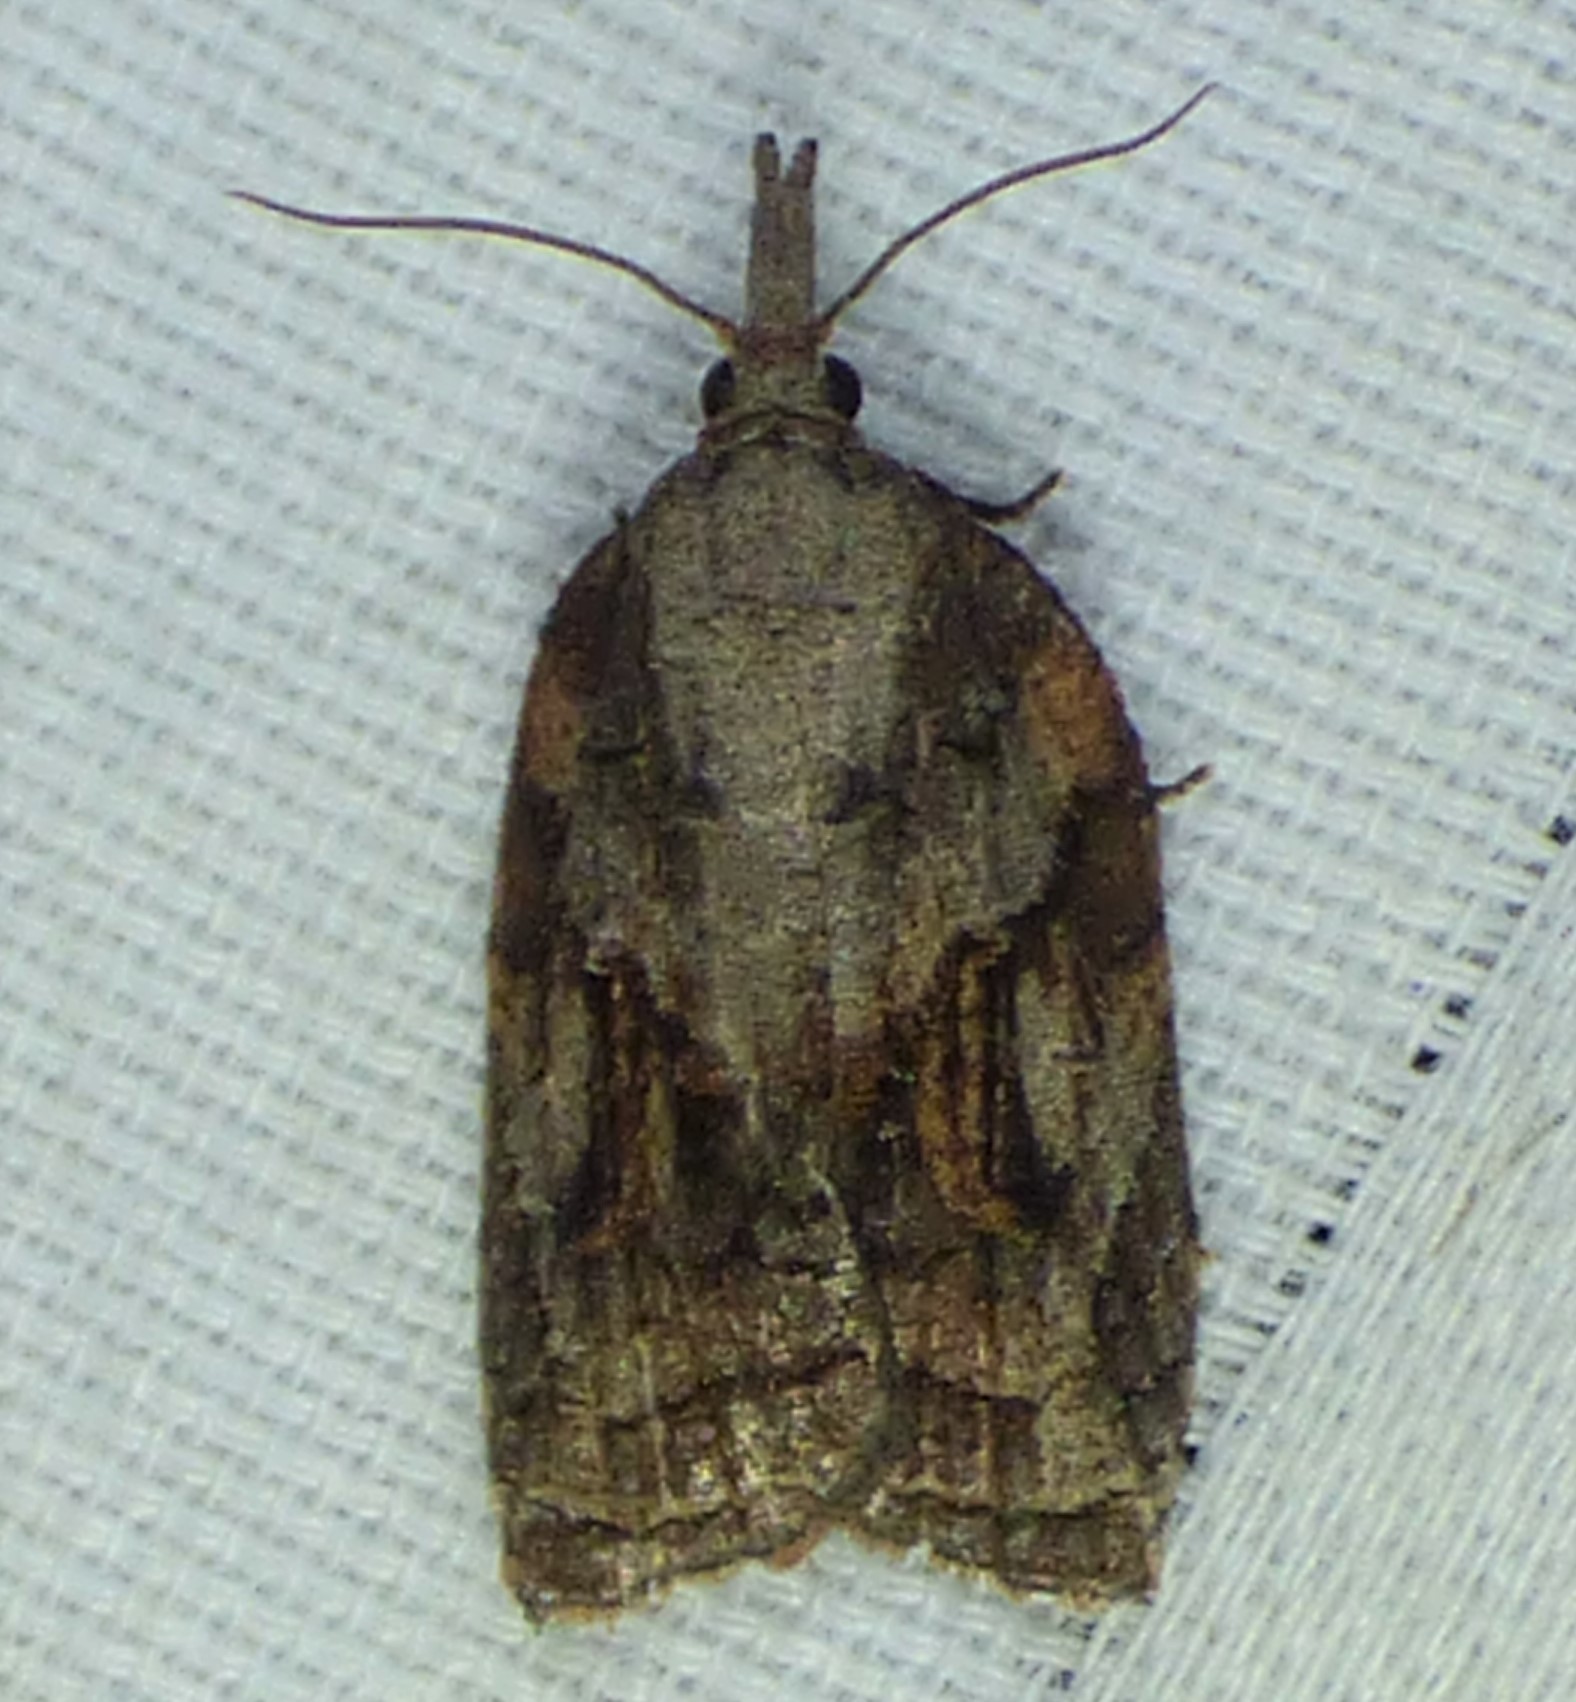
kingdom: Animalia
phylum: Arthropoda
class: Insecta
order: Lepidoptera
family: Tortricidae
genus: Platynota
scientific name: Platynota idaeusalis
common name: Tufted apple bud moth
